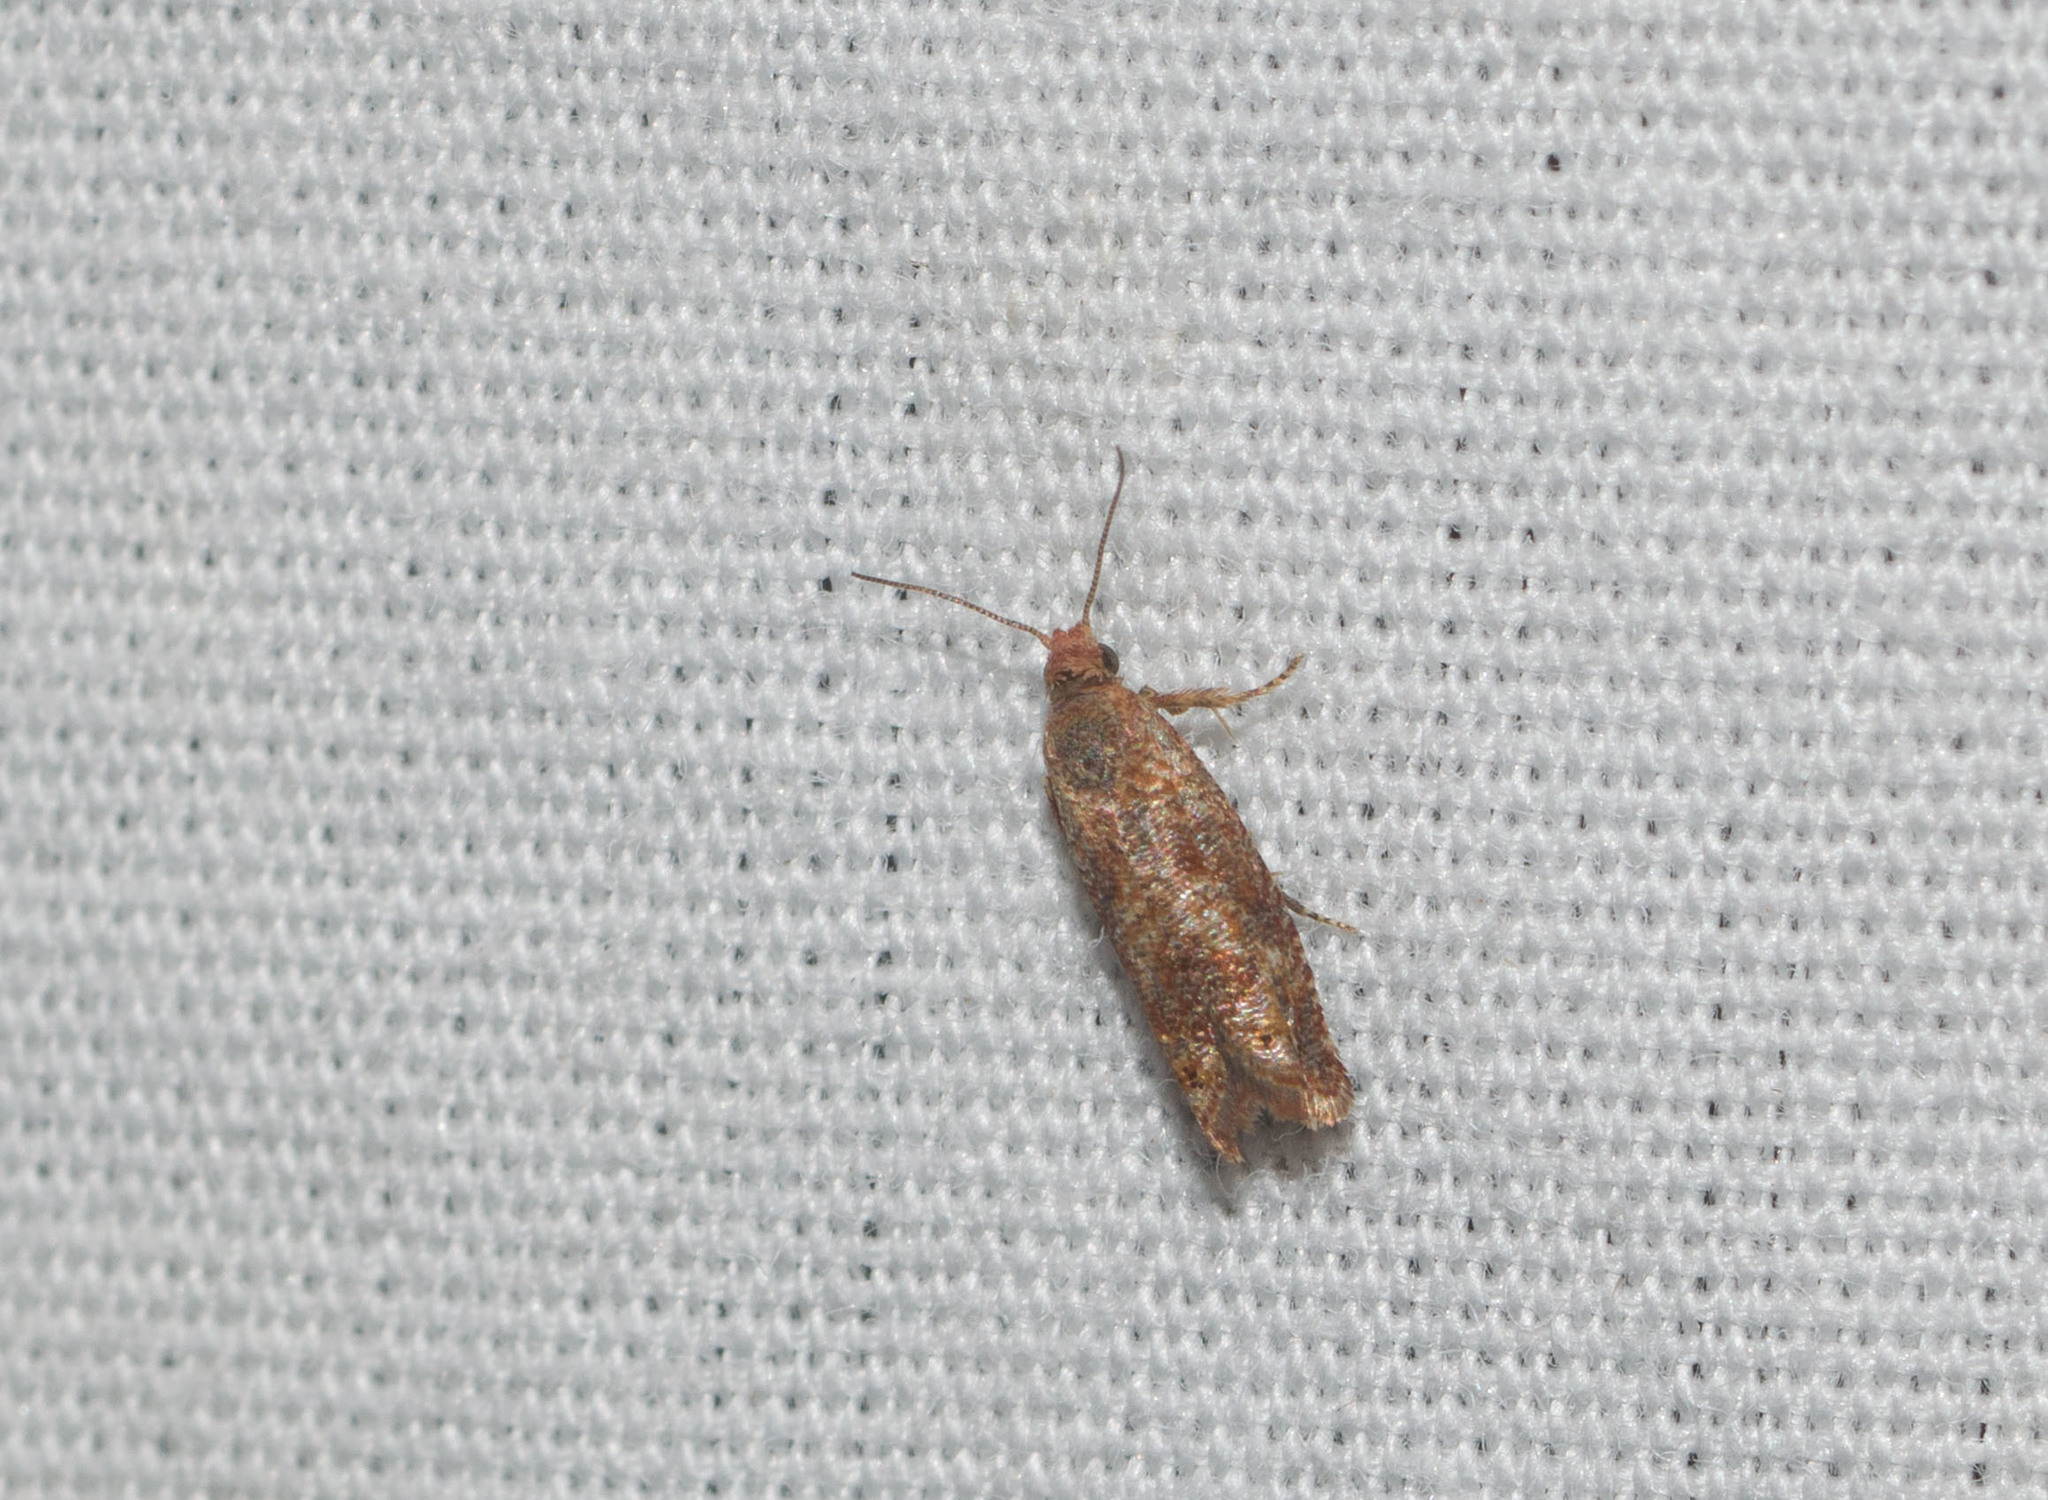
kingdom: Animalia
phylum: Arthropoda
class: Insecta
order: Lepidoptera
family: Tortricidae
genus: Cydia
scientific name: Cydia rufipennis
